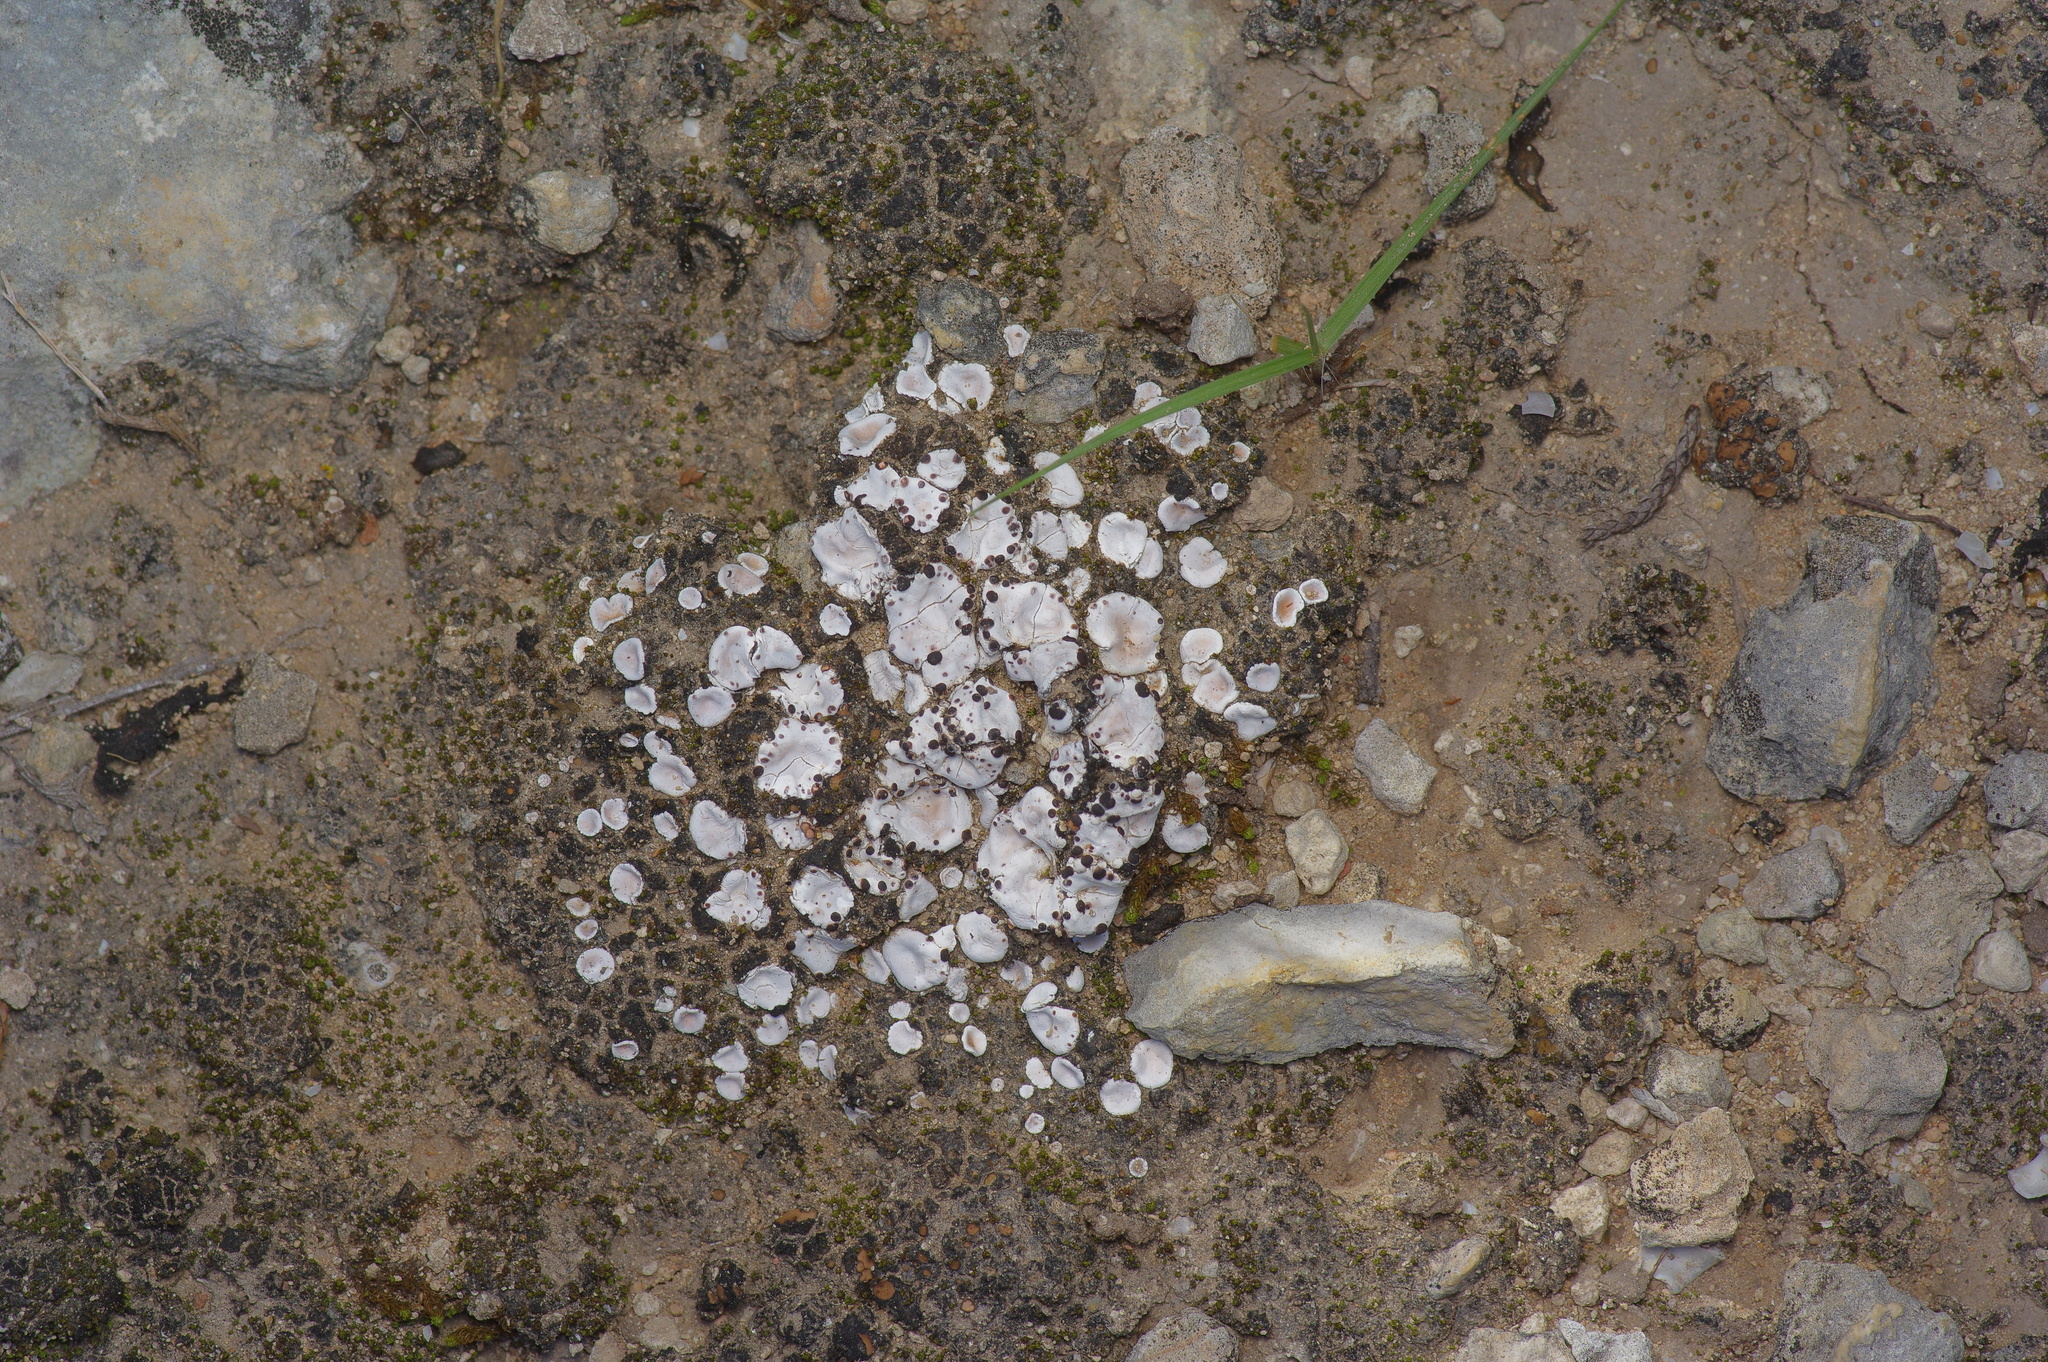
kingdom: Fungi
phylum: Ascomycota
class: Lecanoromycetes
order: Lecanorales
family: Psoraceae
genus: Psora
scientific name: Psora crenata
